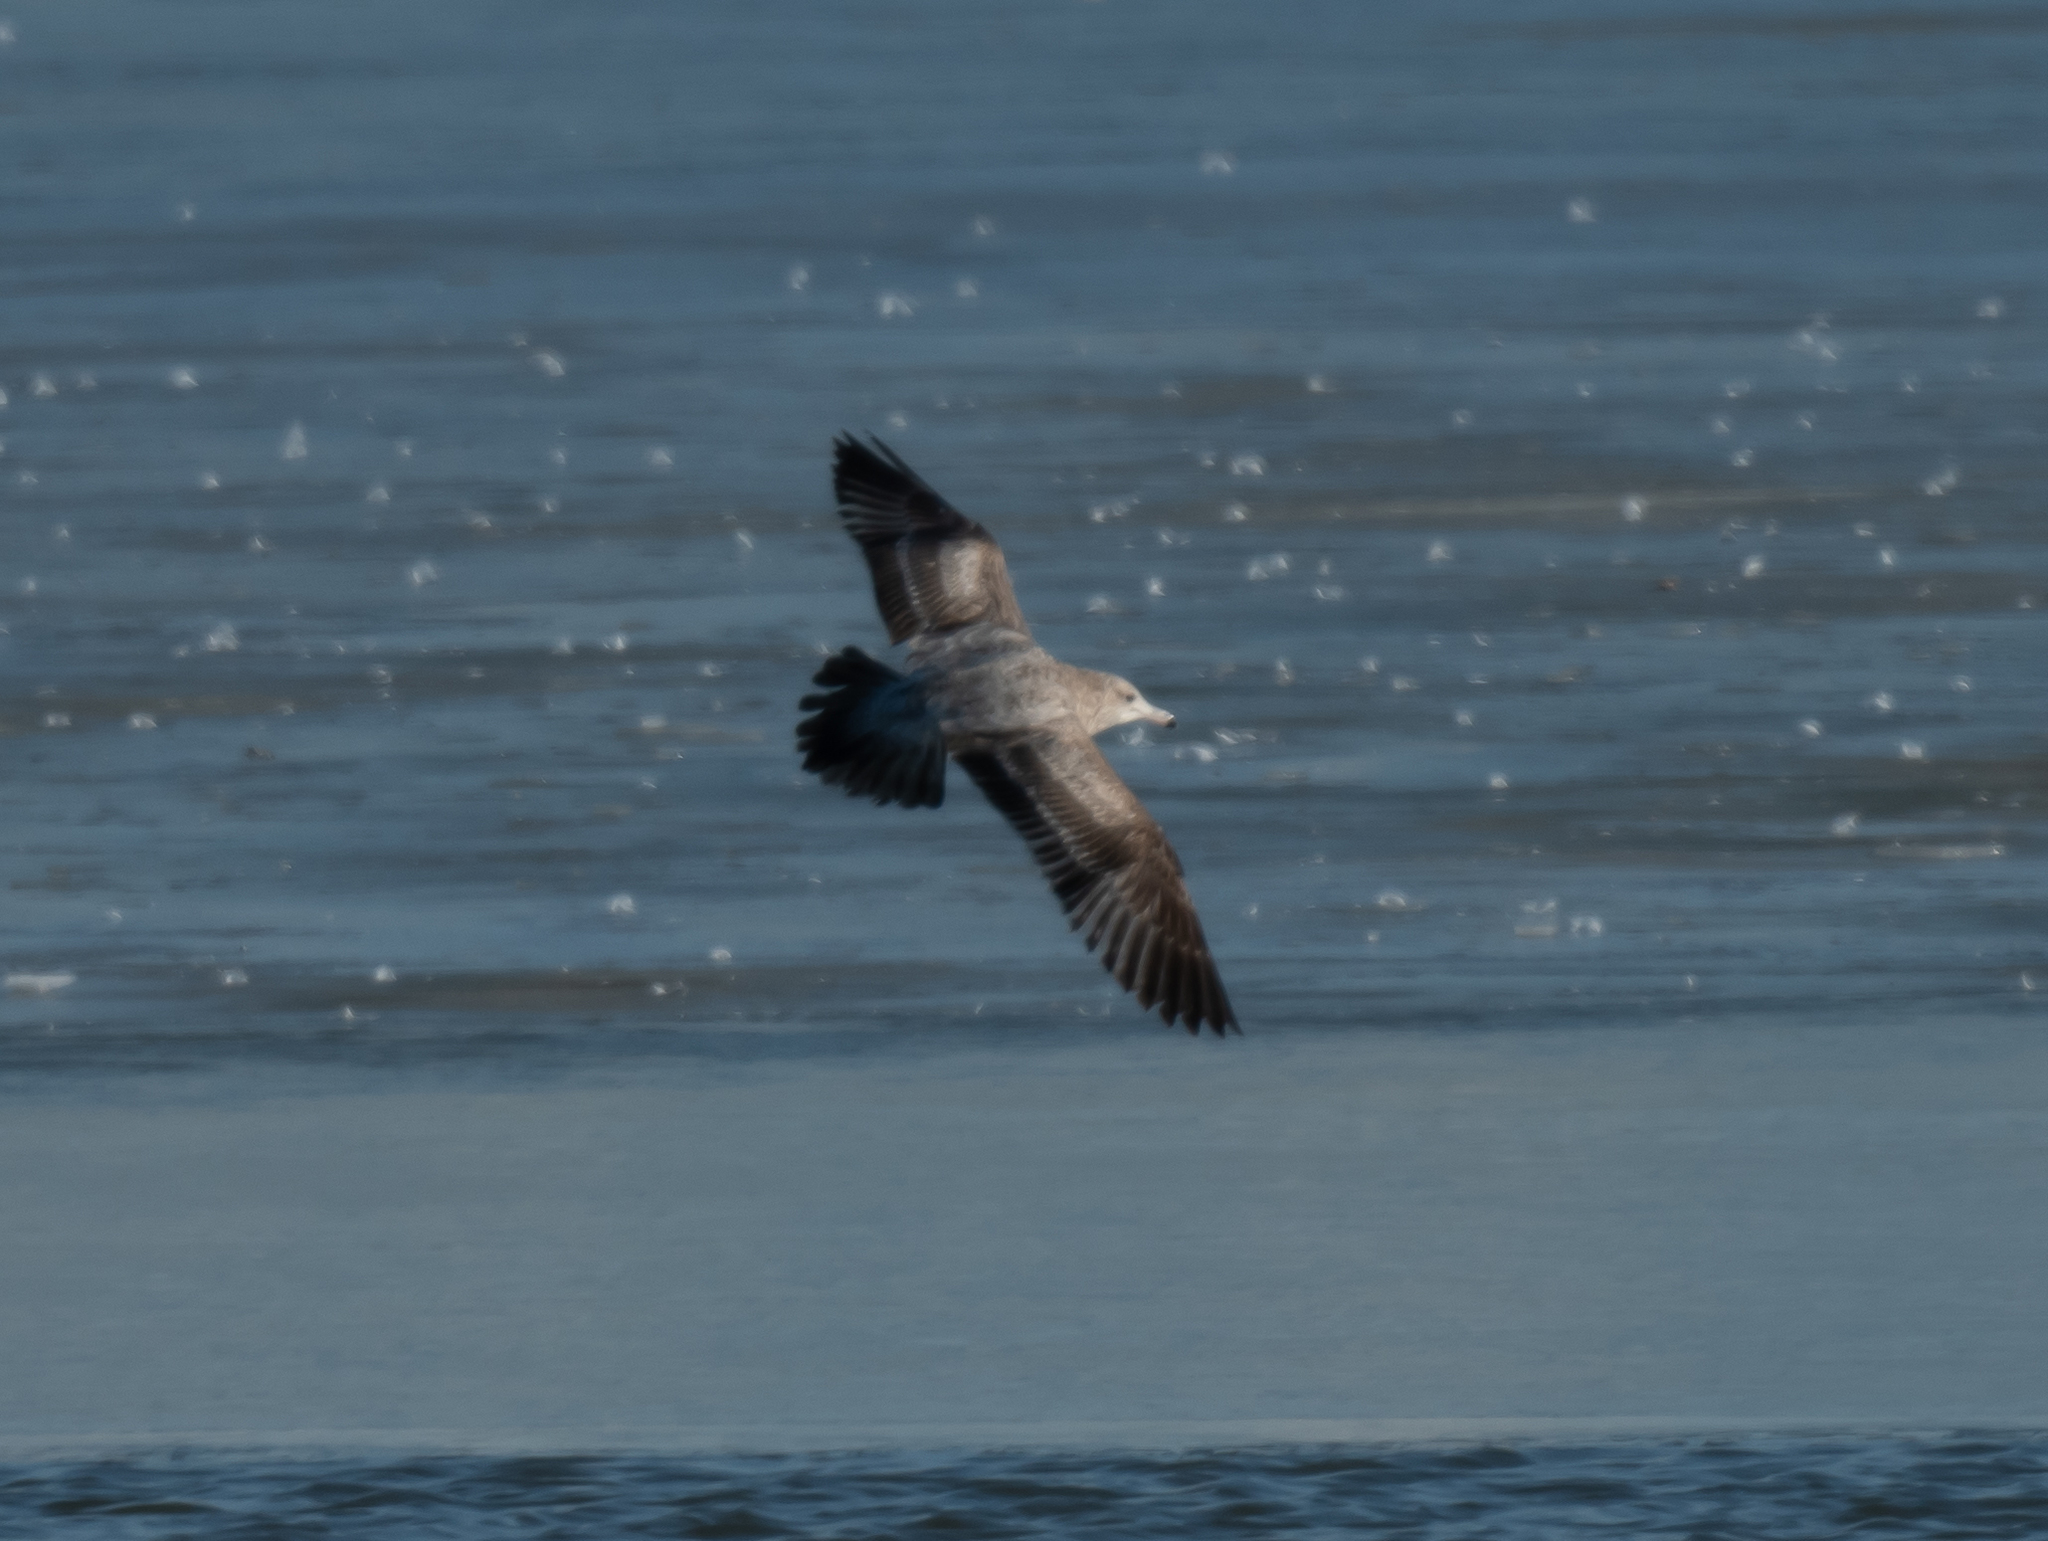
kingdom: Animalia
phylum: Chordata
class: Aves
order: Charadriiformes
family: Laridae
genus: Larus
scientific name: Larus californicus
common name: California gull
